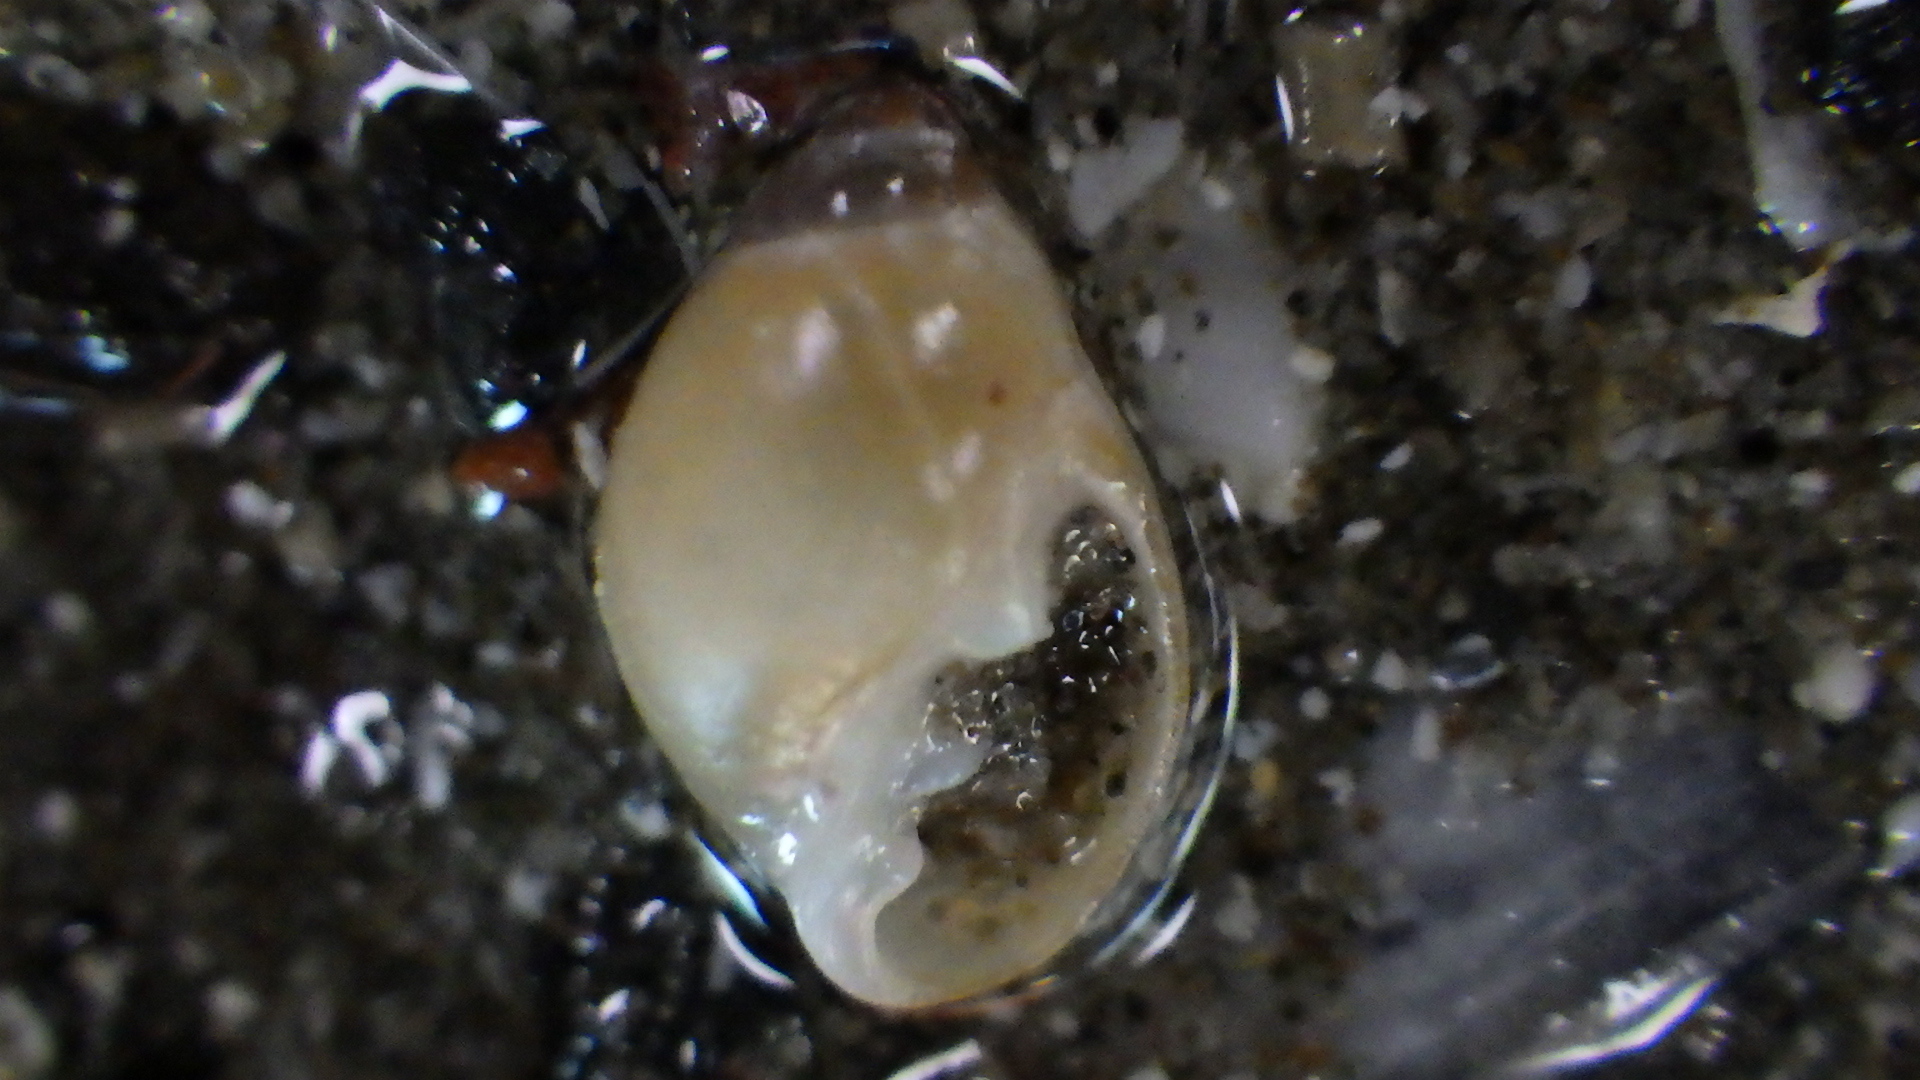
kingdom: Animalia
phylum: Mollusca
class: Gastropoda
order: Ellobiida
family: Ellobiidae
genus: Marinula
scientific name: Marinula filholi
